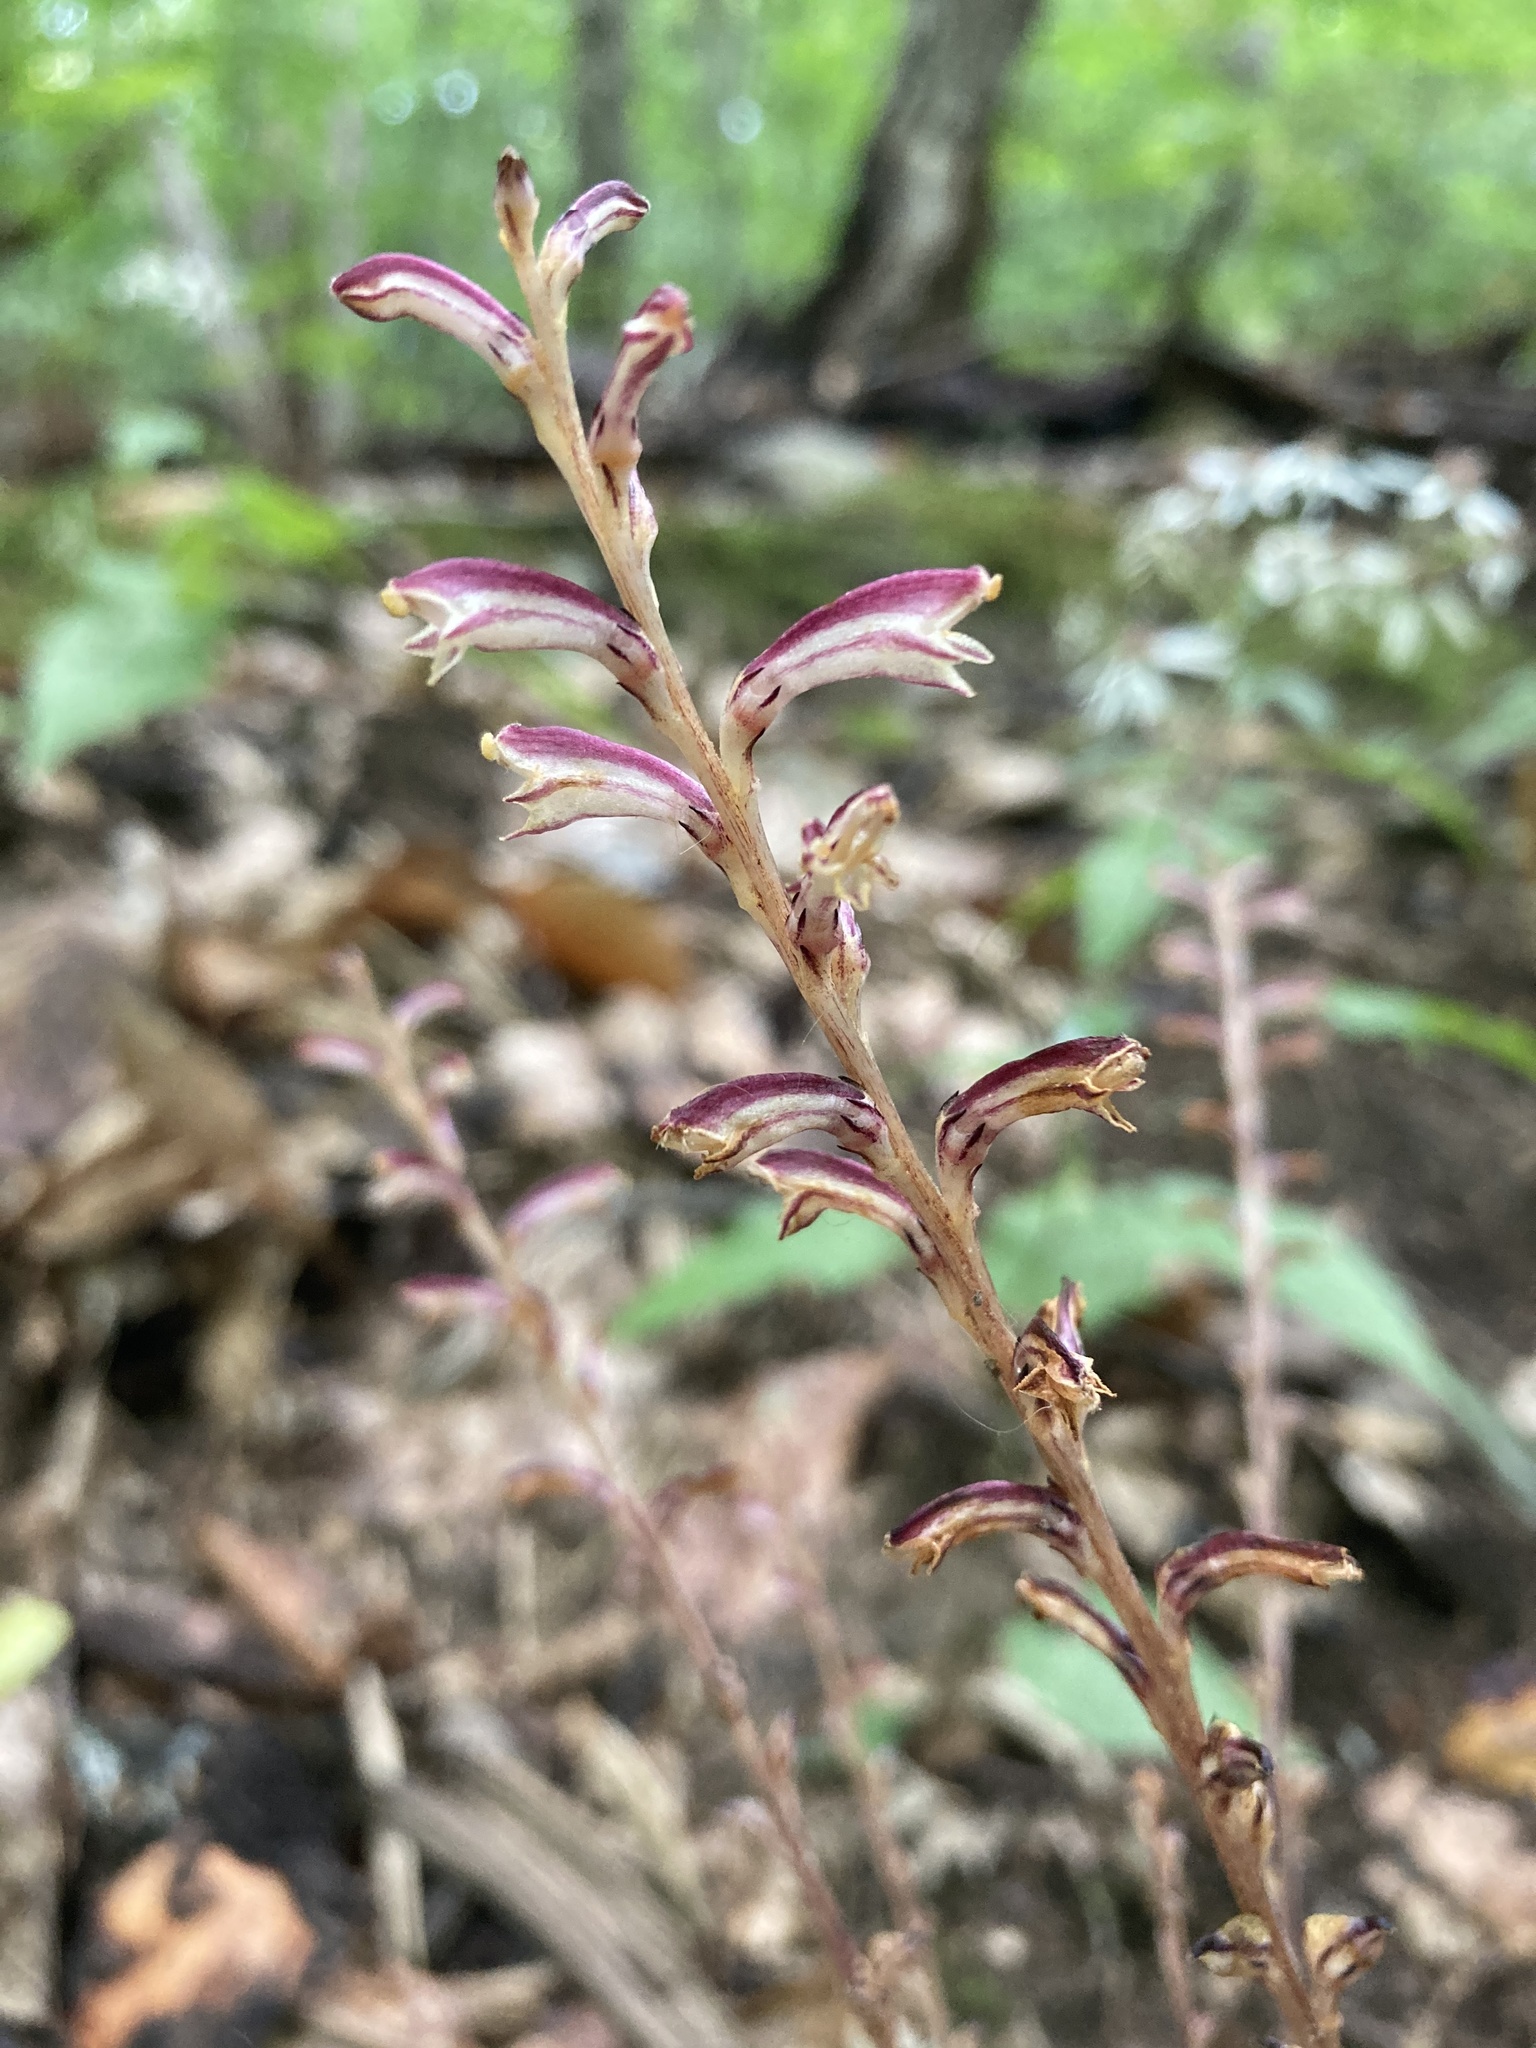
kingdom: Plantae
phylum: Tracheophyta
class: Magnoliopsida
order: Lamiales
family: Orobanchaceae
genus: Epifagus
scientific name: Epifagus virginiana
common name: Beechdrops
